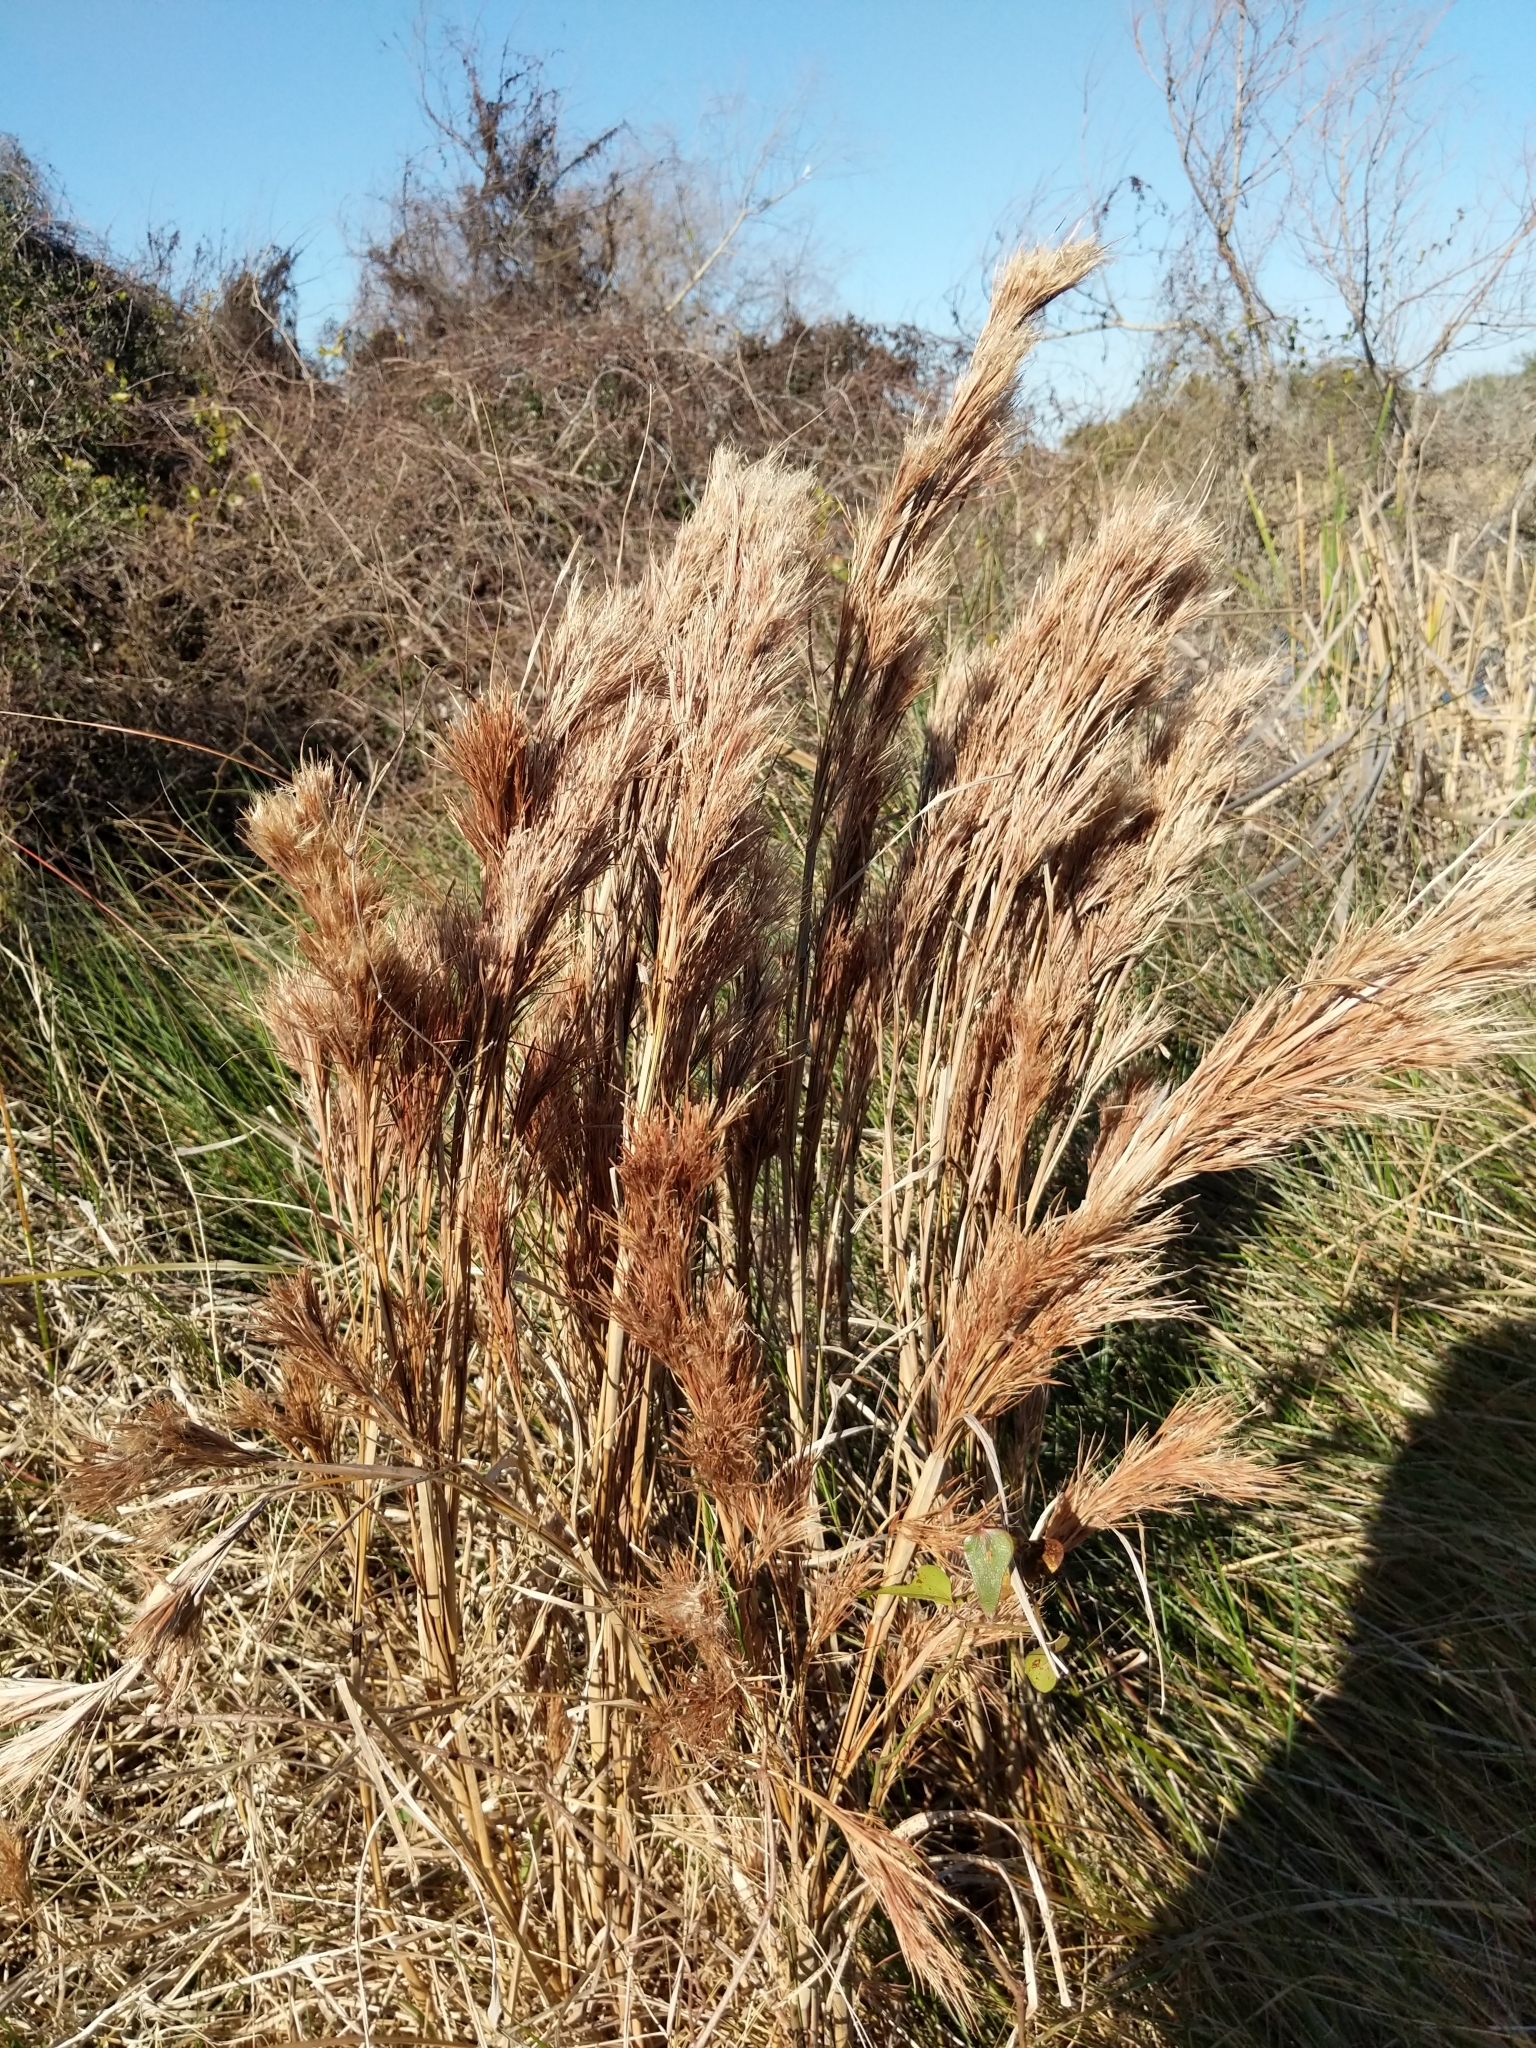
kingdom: Plantae
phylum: Tracheophyta
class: Liliopsida
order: Poales
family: Poaceae
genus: Andropogon
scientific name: Andropogon tenuispatheus
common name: Bushy bluestem
